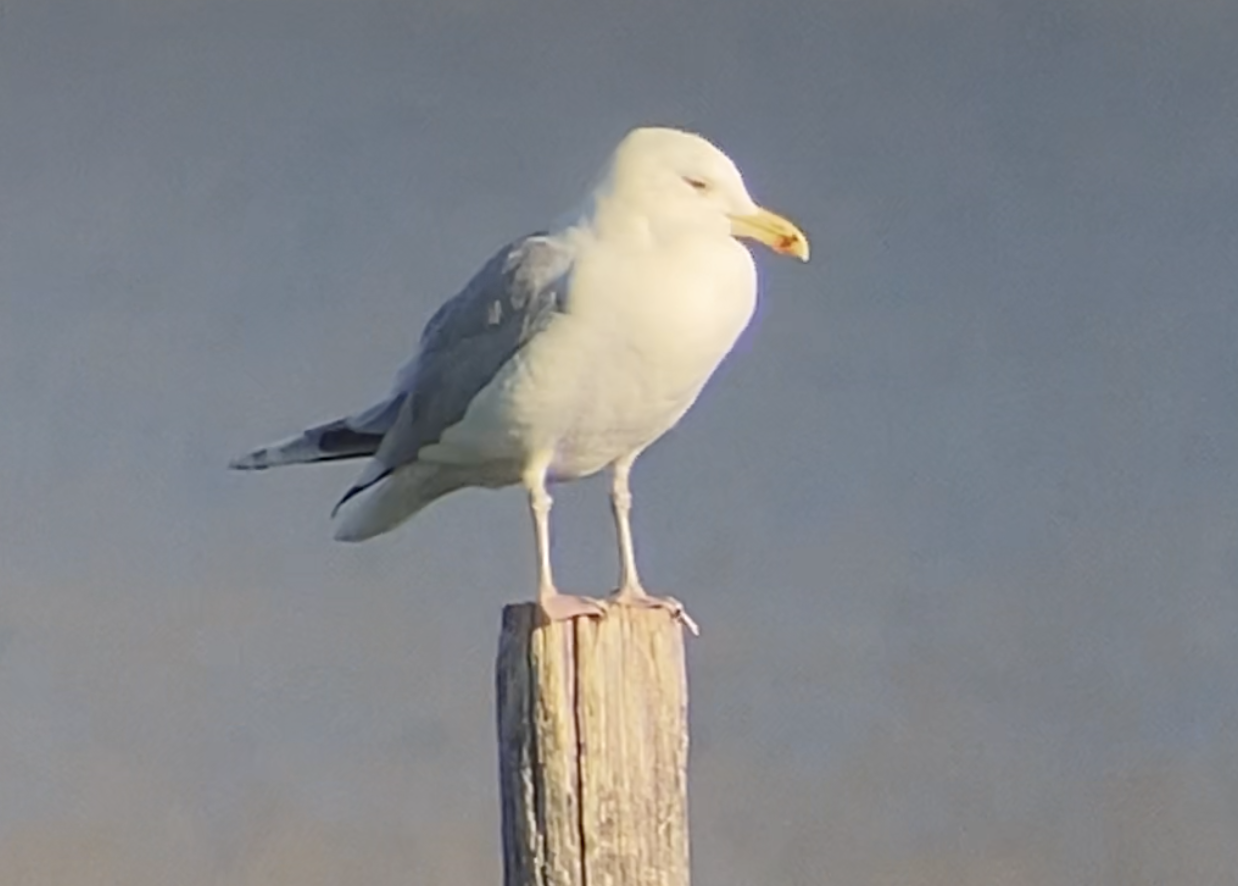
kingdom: Animalia
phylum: Chordata
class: Aves
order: Charadriiformes
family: Laridae
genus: Larus
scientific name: Larus cachinnans
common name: Caspian gull
